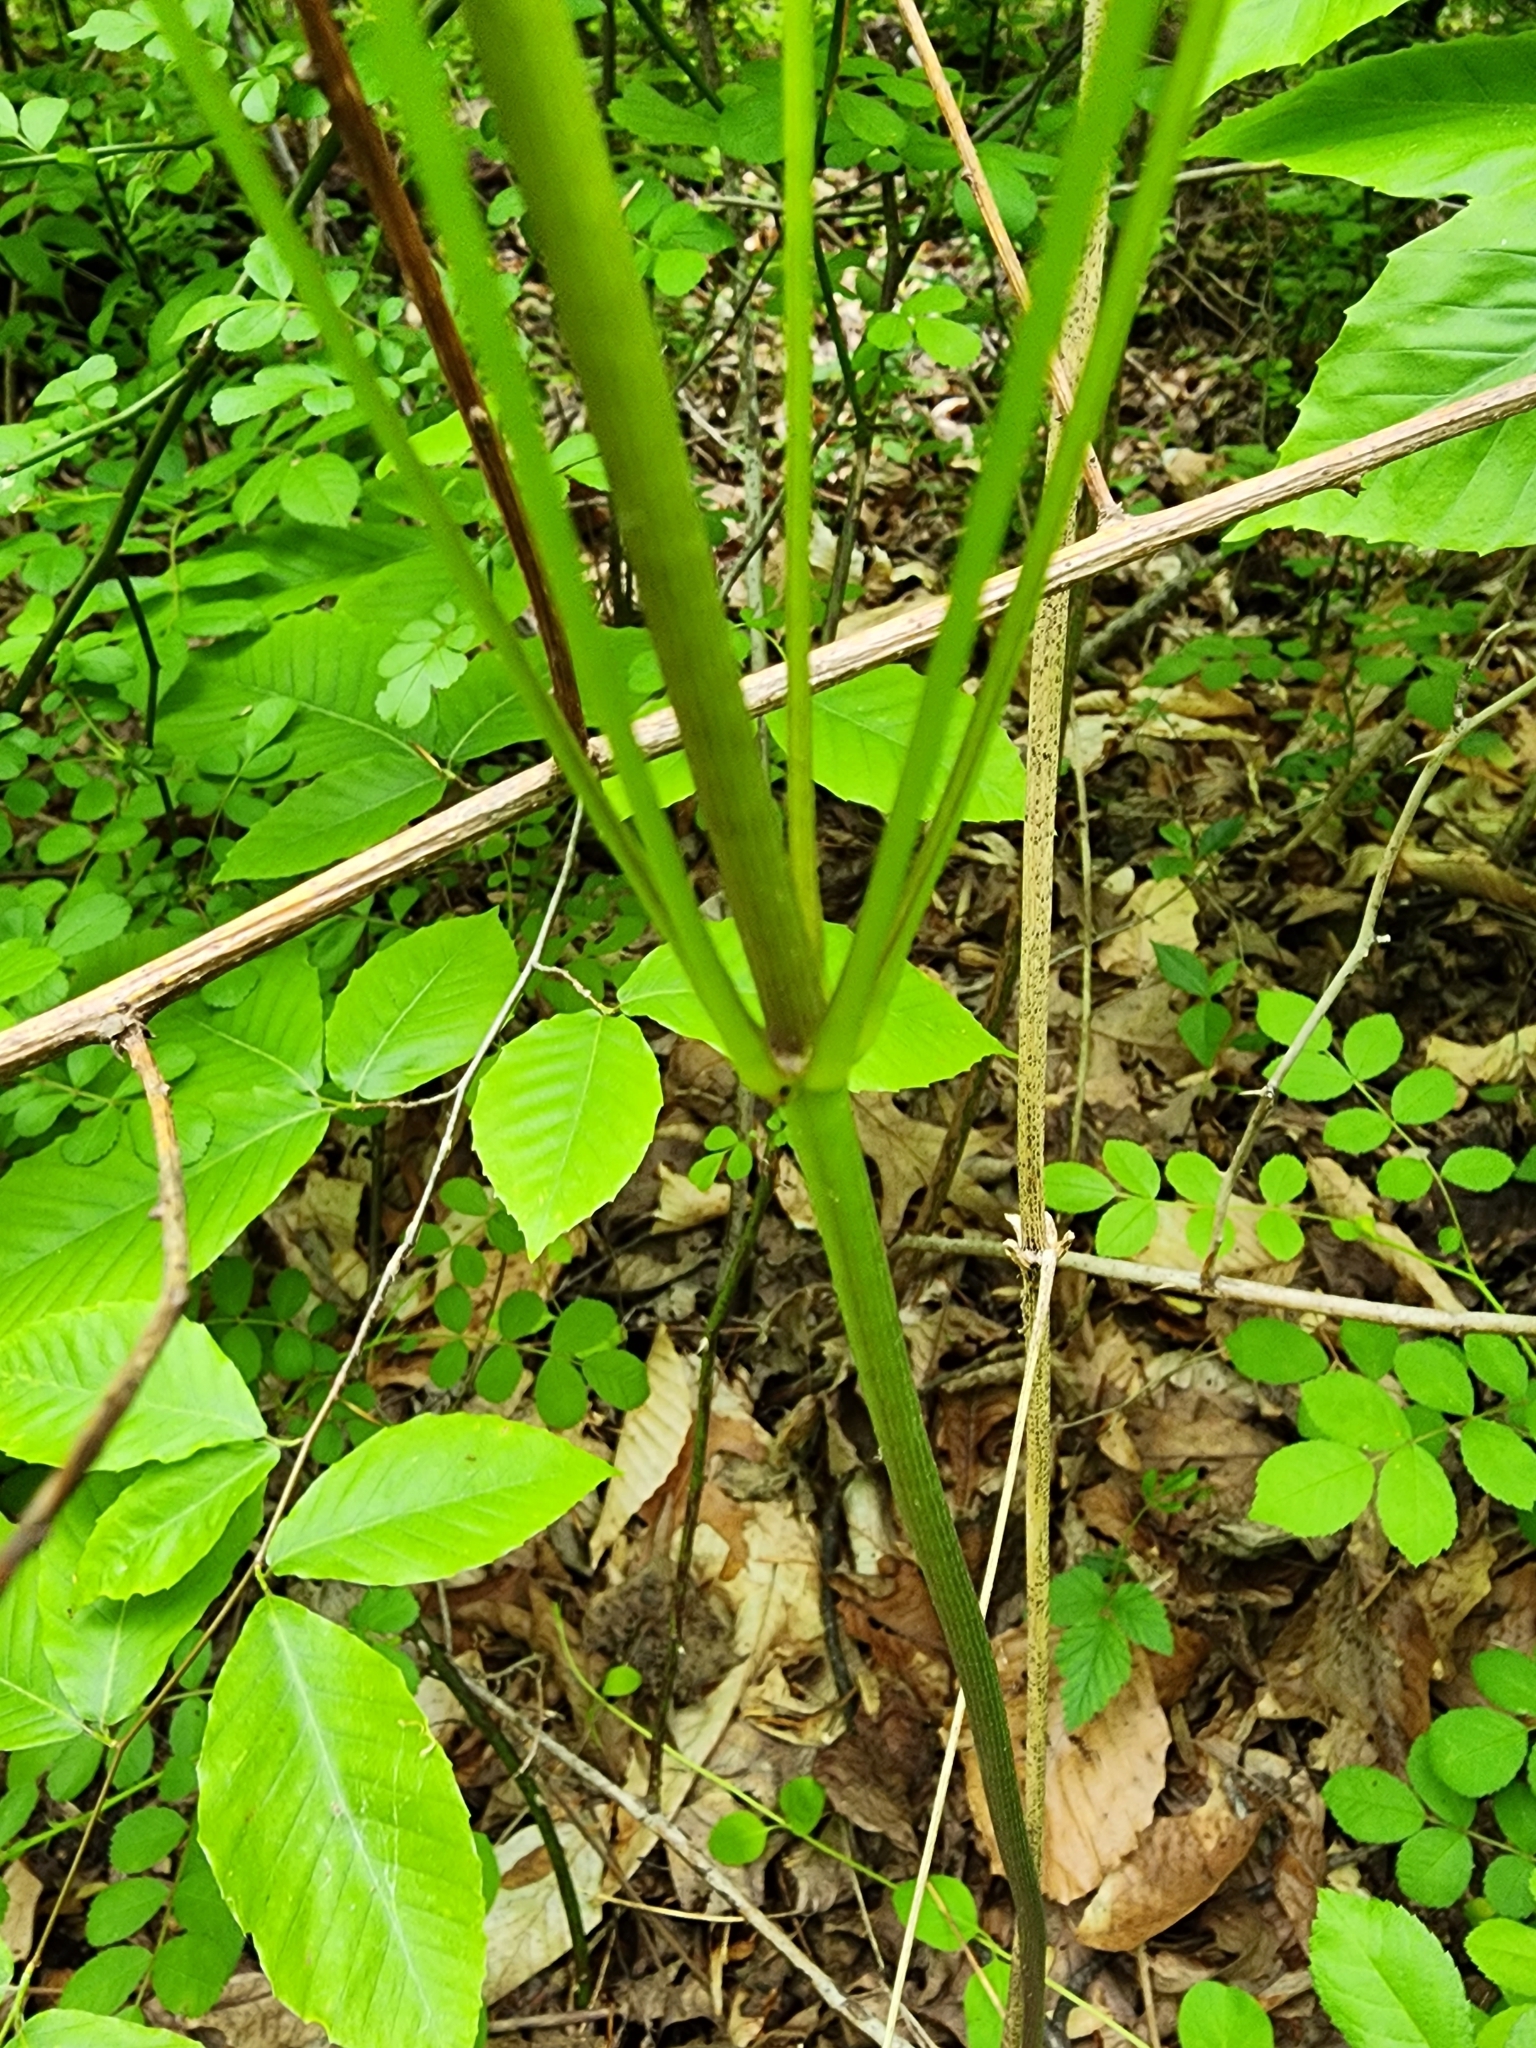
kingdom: Plantae
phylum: Tracheophyta
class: Liliopsida
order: Dioscoreales
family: Dioscoreaceae
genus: Dioscorea
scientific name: Dioscorea villosa
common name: Wild yam
